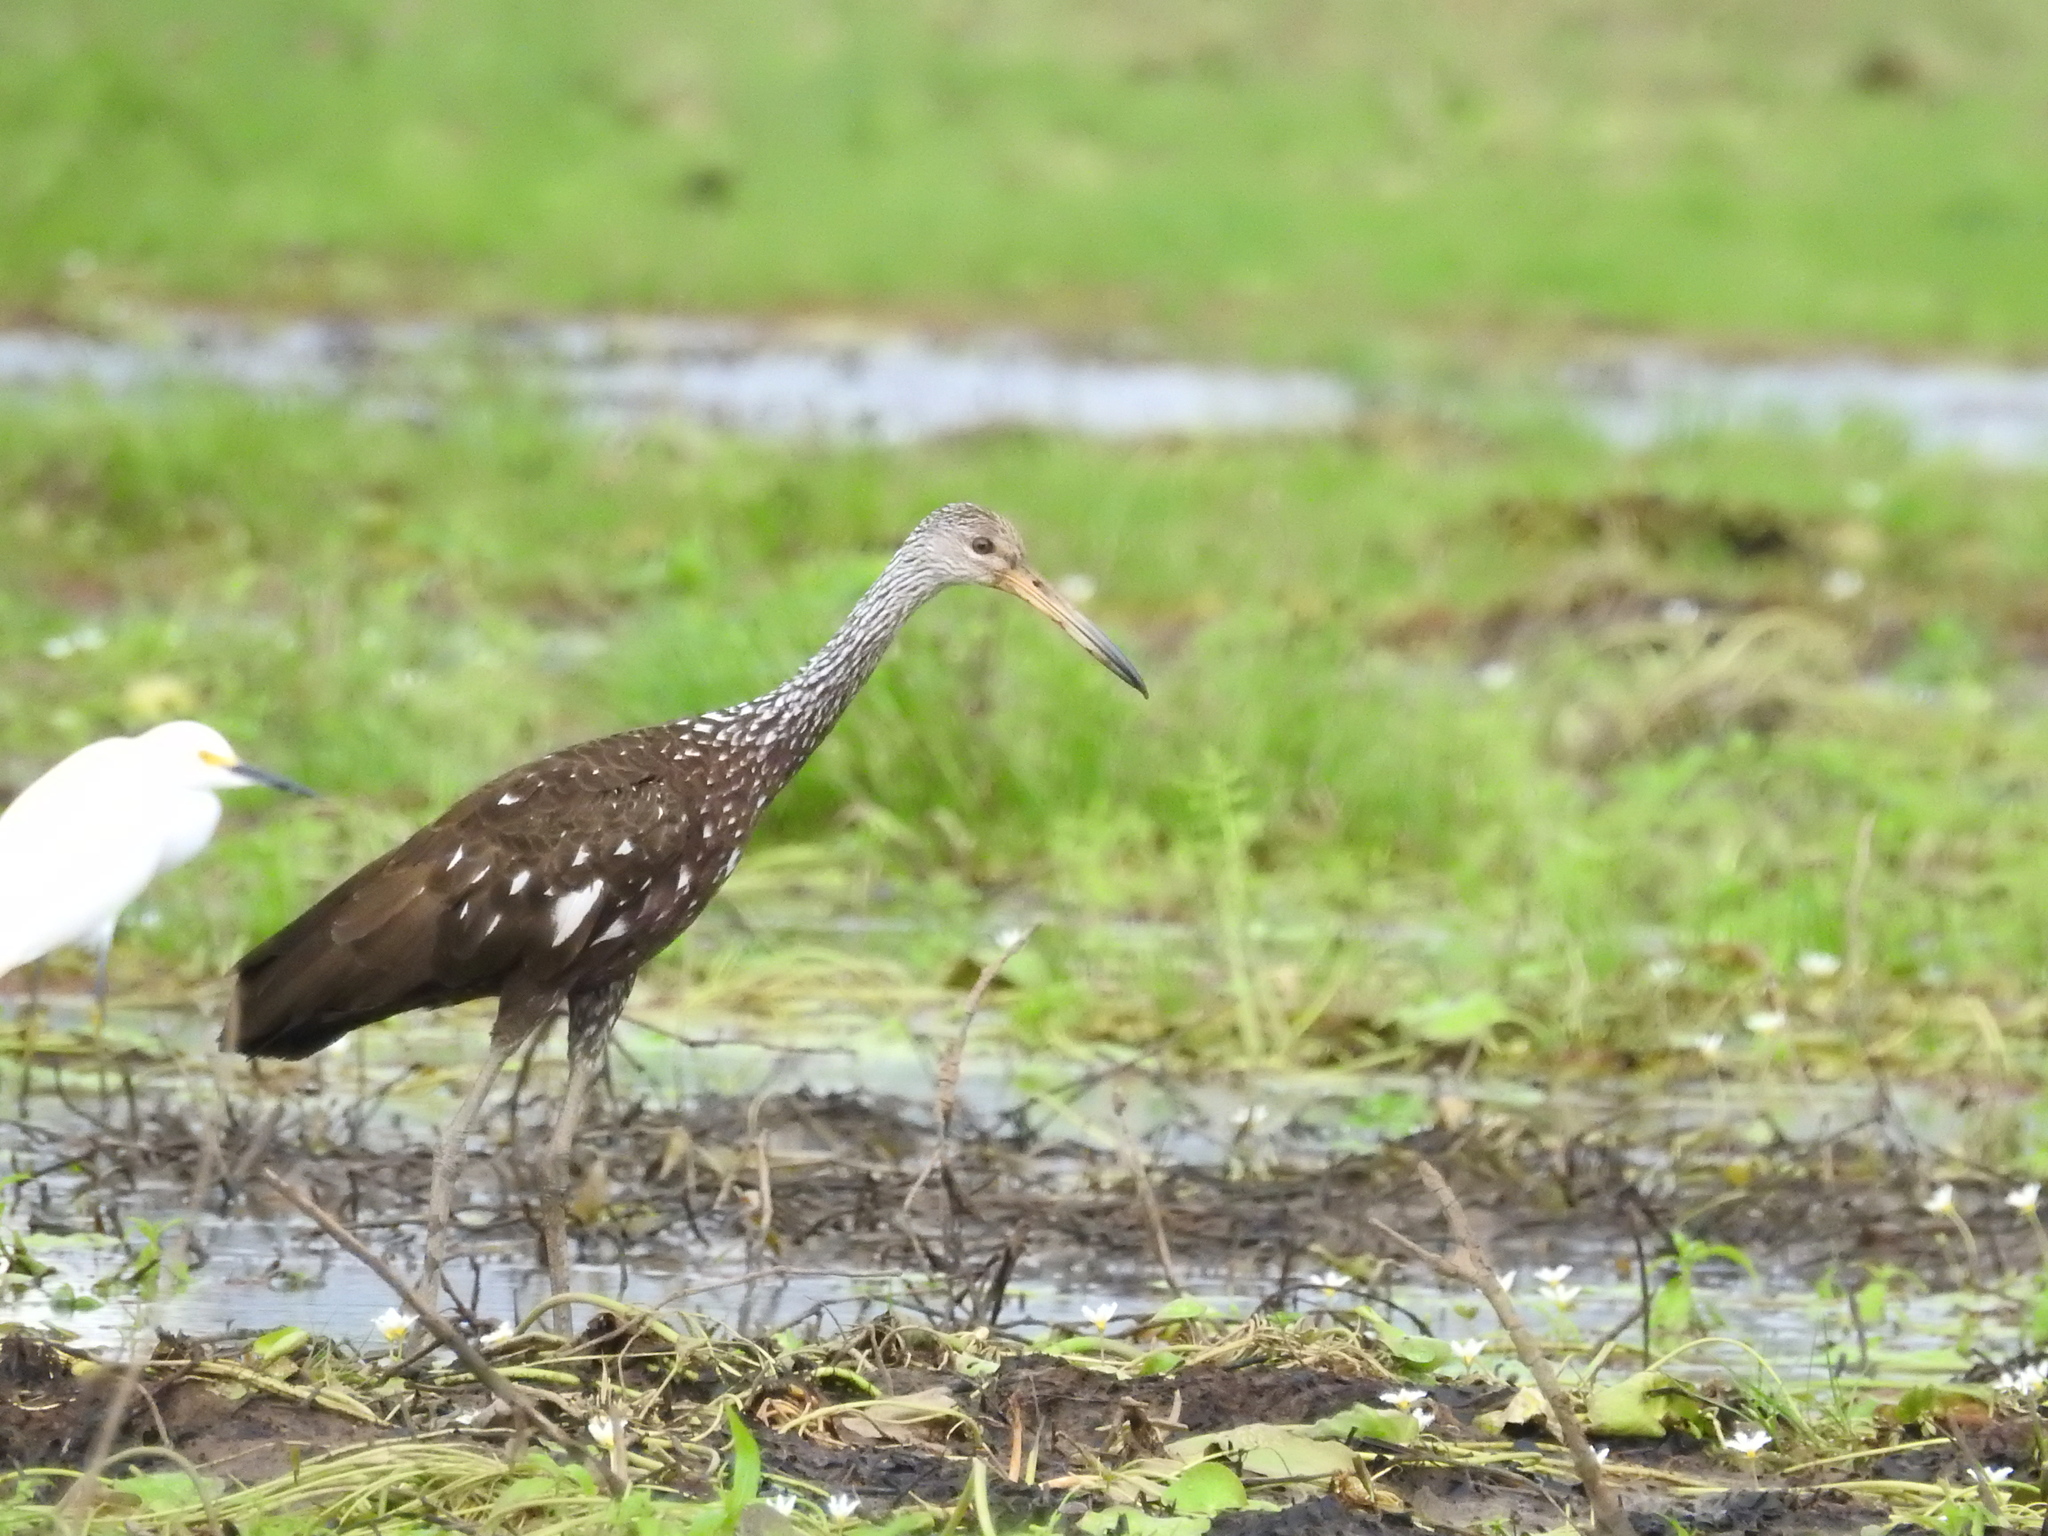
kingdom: Animalia
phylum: Chordata
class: Aves
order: Gruiformes
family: Aramidae
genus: Aramus
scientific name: Aramus guarauna
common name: Limpkin
